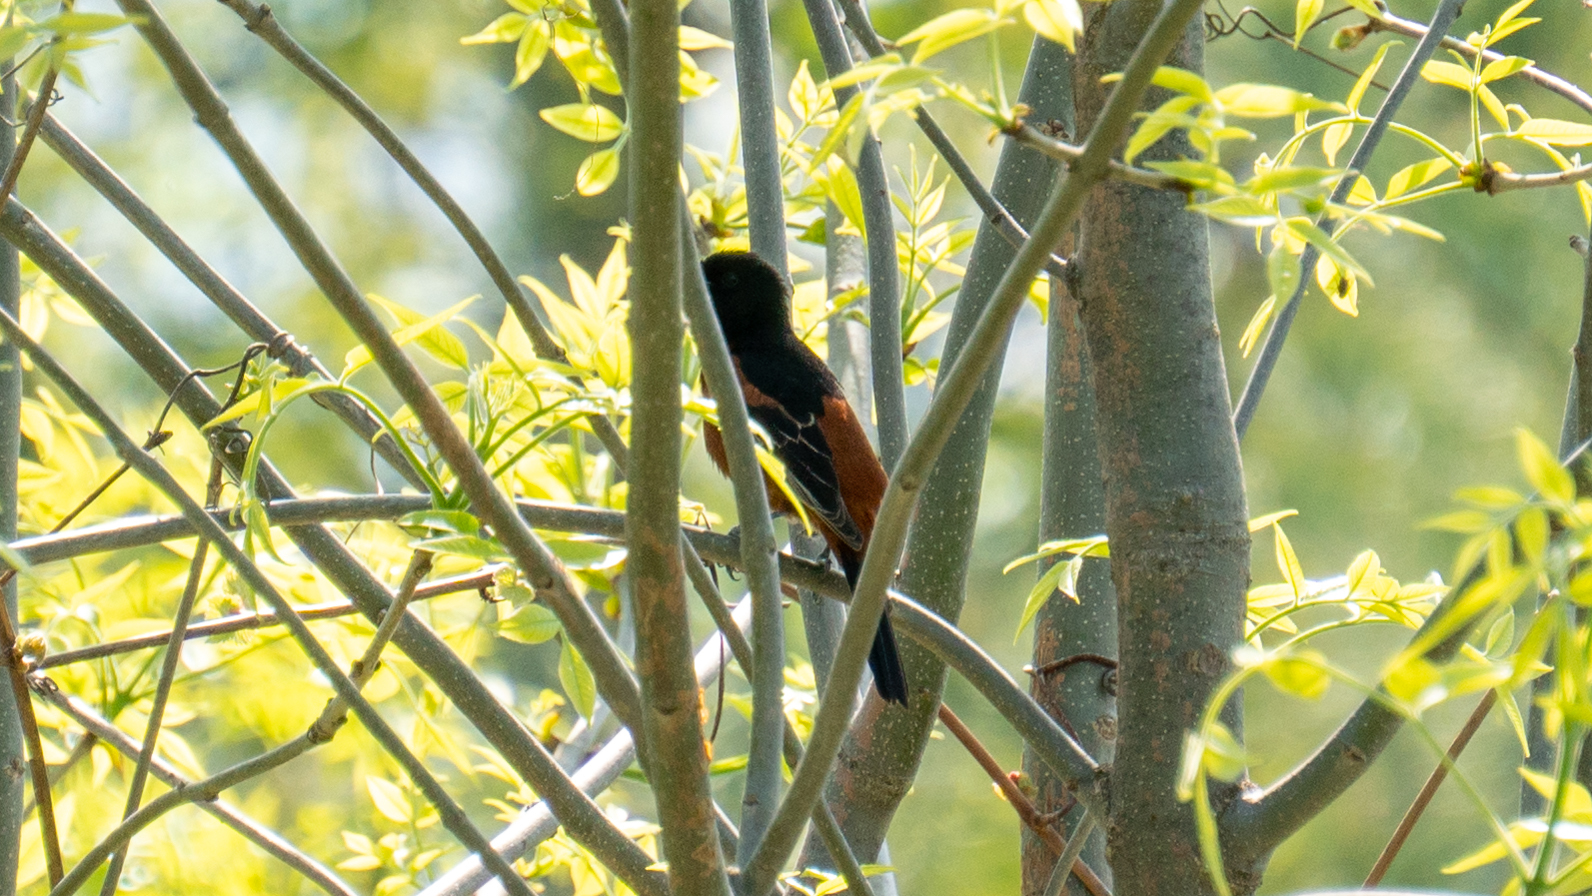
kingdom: Animalia
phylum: Chordata
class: Aves
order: Passeriformes
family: Icteridae
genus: Icterus
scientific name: Icterus spurius
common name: Orchard oriole
